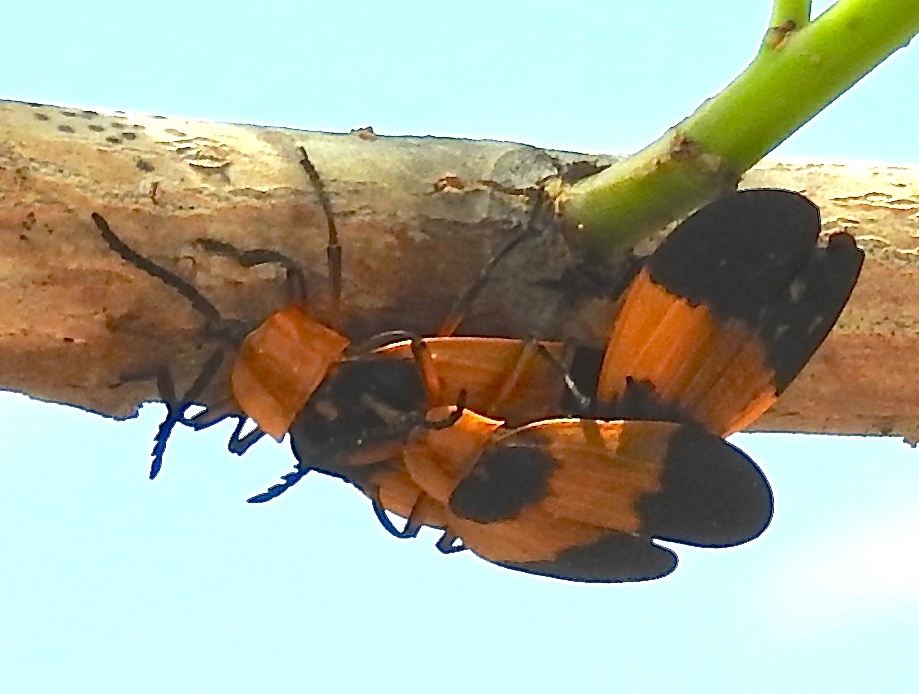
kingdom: Animalia
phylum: Arthropoda
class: Insecta
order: Coleoptera
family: Lycidae
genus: Lycus
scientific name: Lycus
